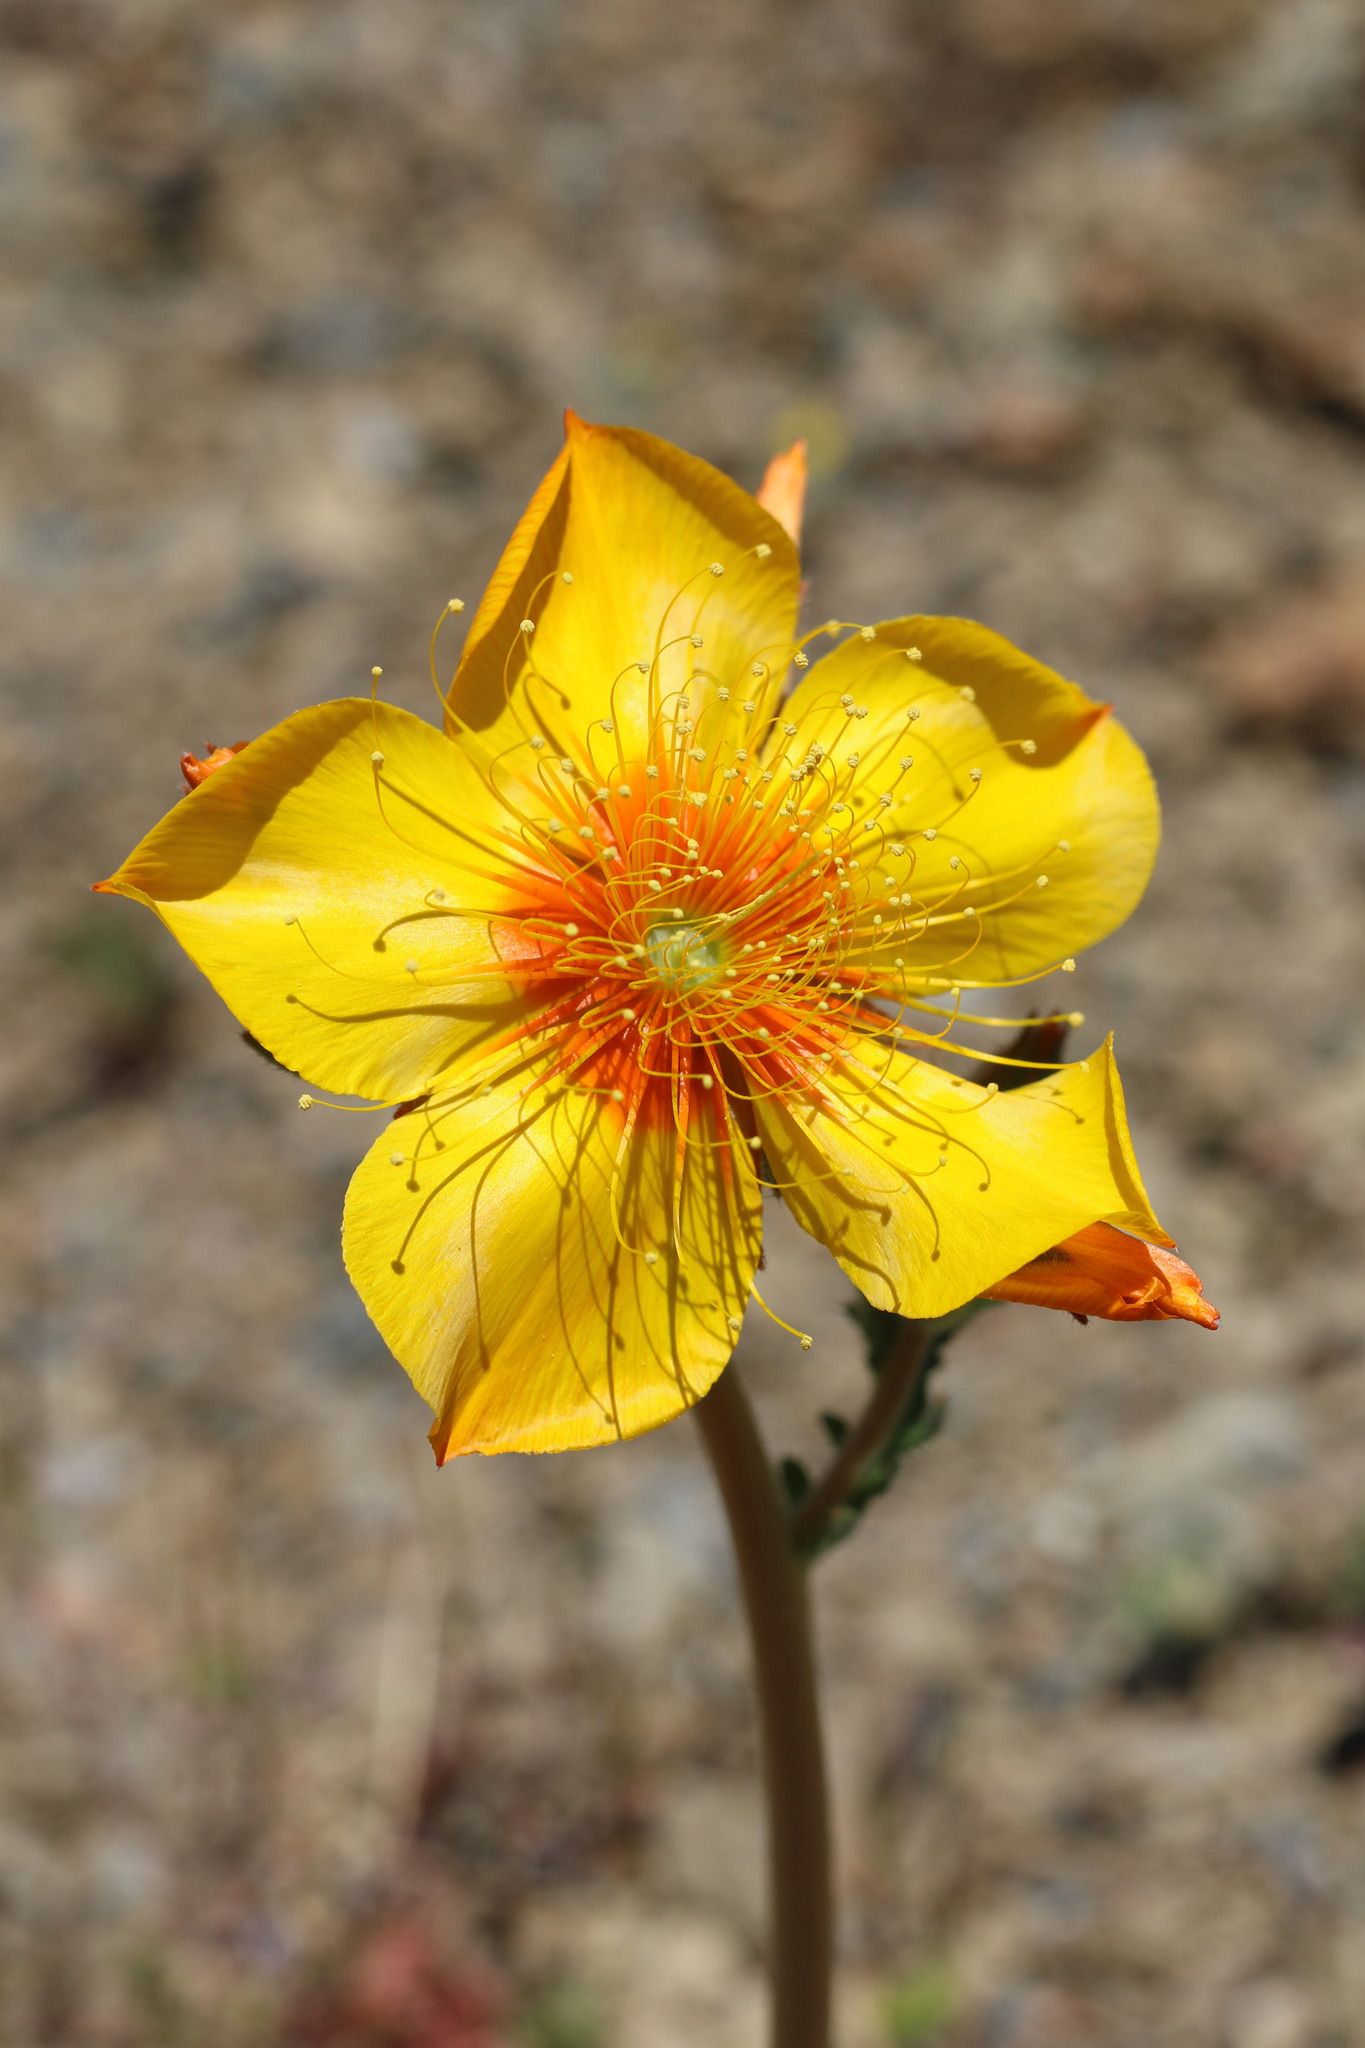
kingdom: Plantae
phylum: Tracheophyta
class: Magnoliopsida
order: Cornales
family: Loasaceae
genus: Mentzelia
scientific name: Mentzelia lindleyi
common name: Golden bartonia
